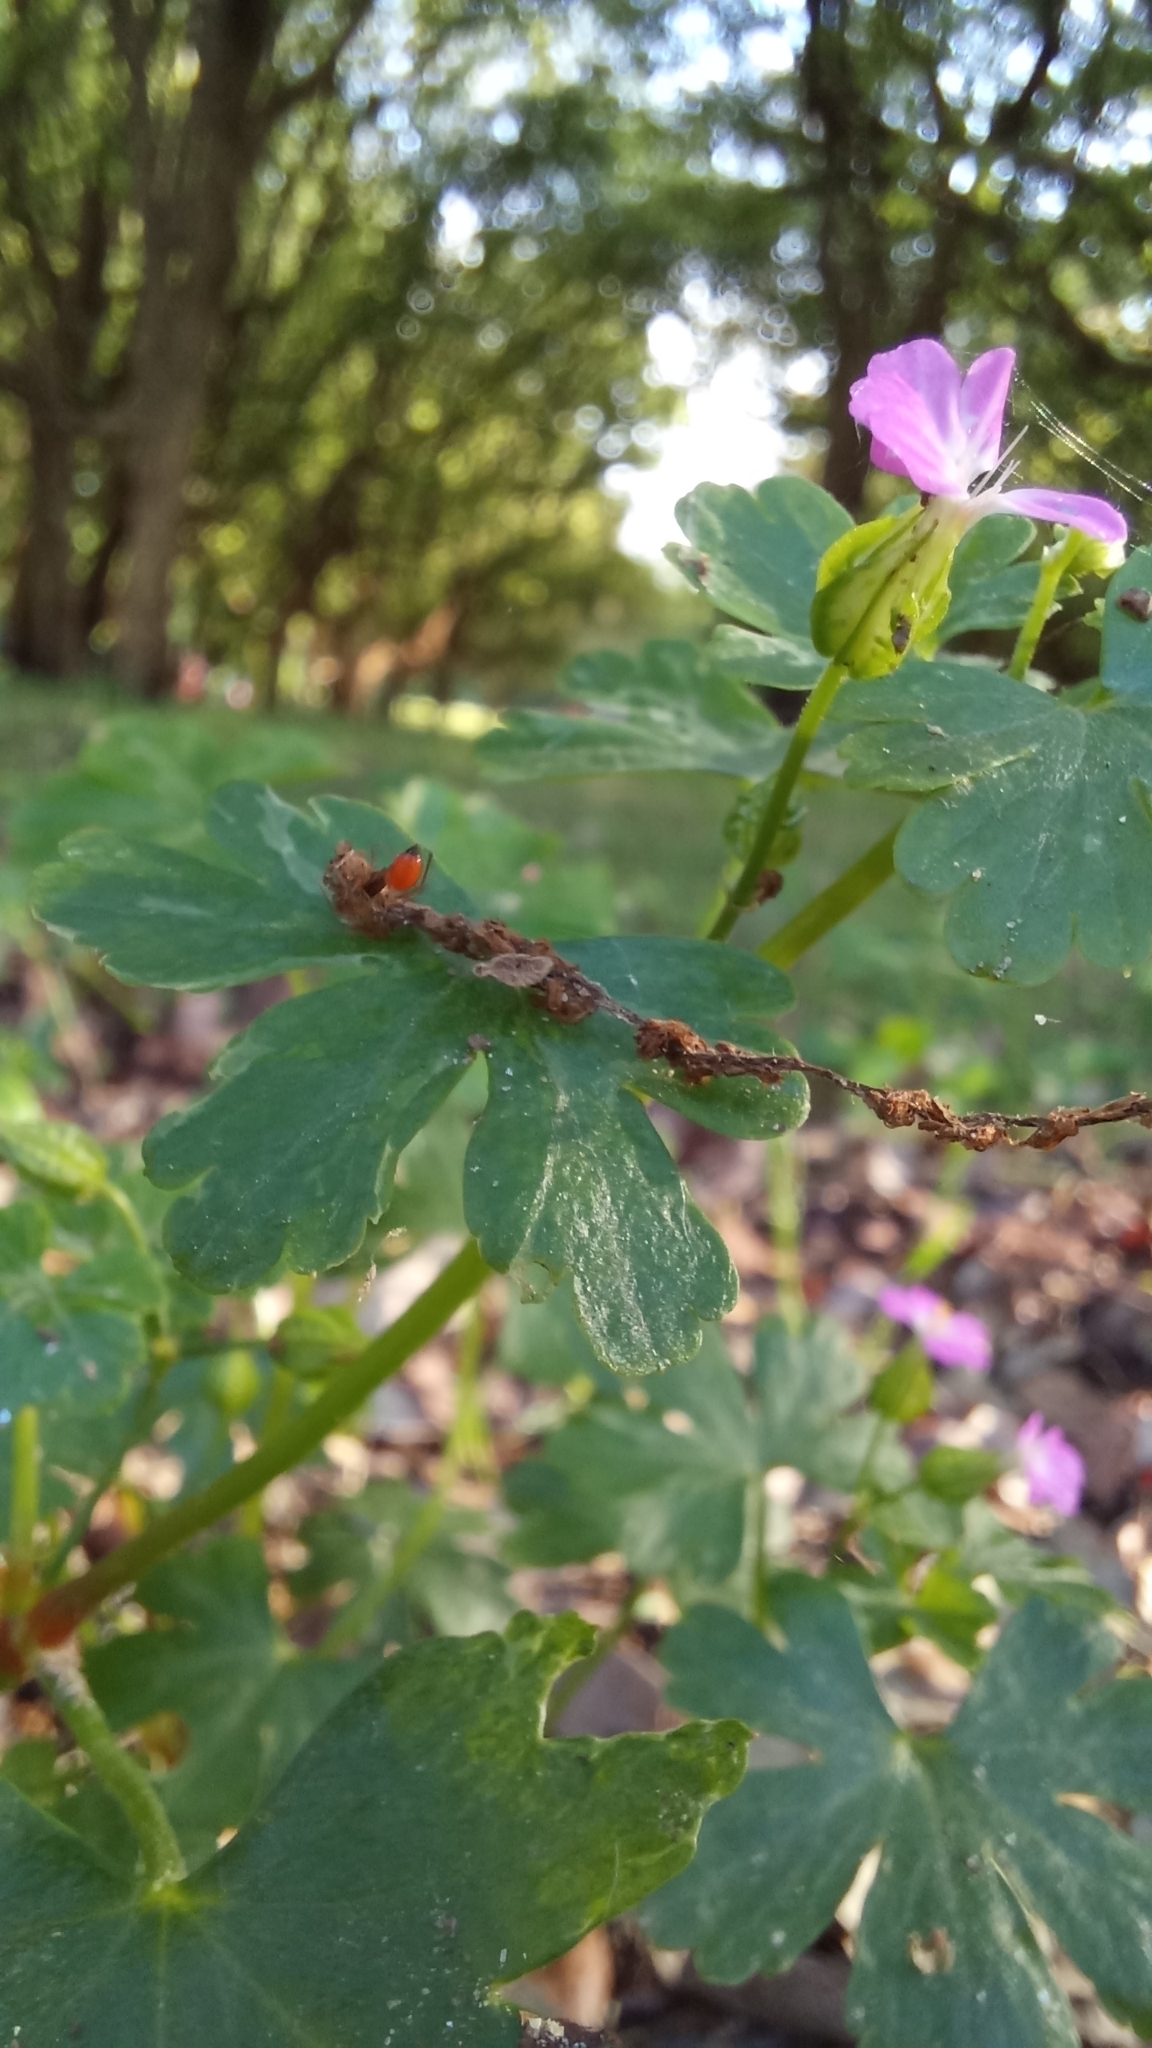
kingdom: Plantae
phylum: Tracheophyta
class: Magnoliopsida
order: Geraniales
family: Geraniaceae
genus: Geranium
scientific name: Geranium lucidum
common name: Shining crane's-bill
